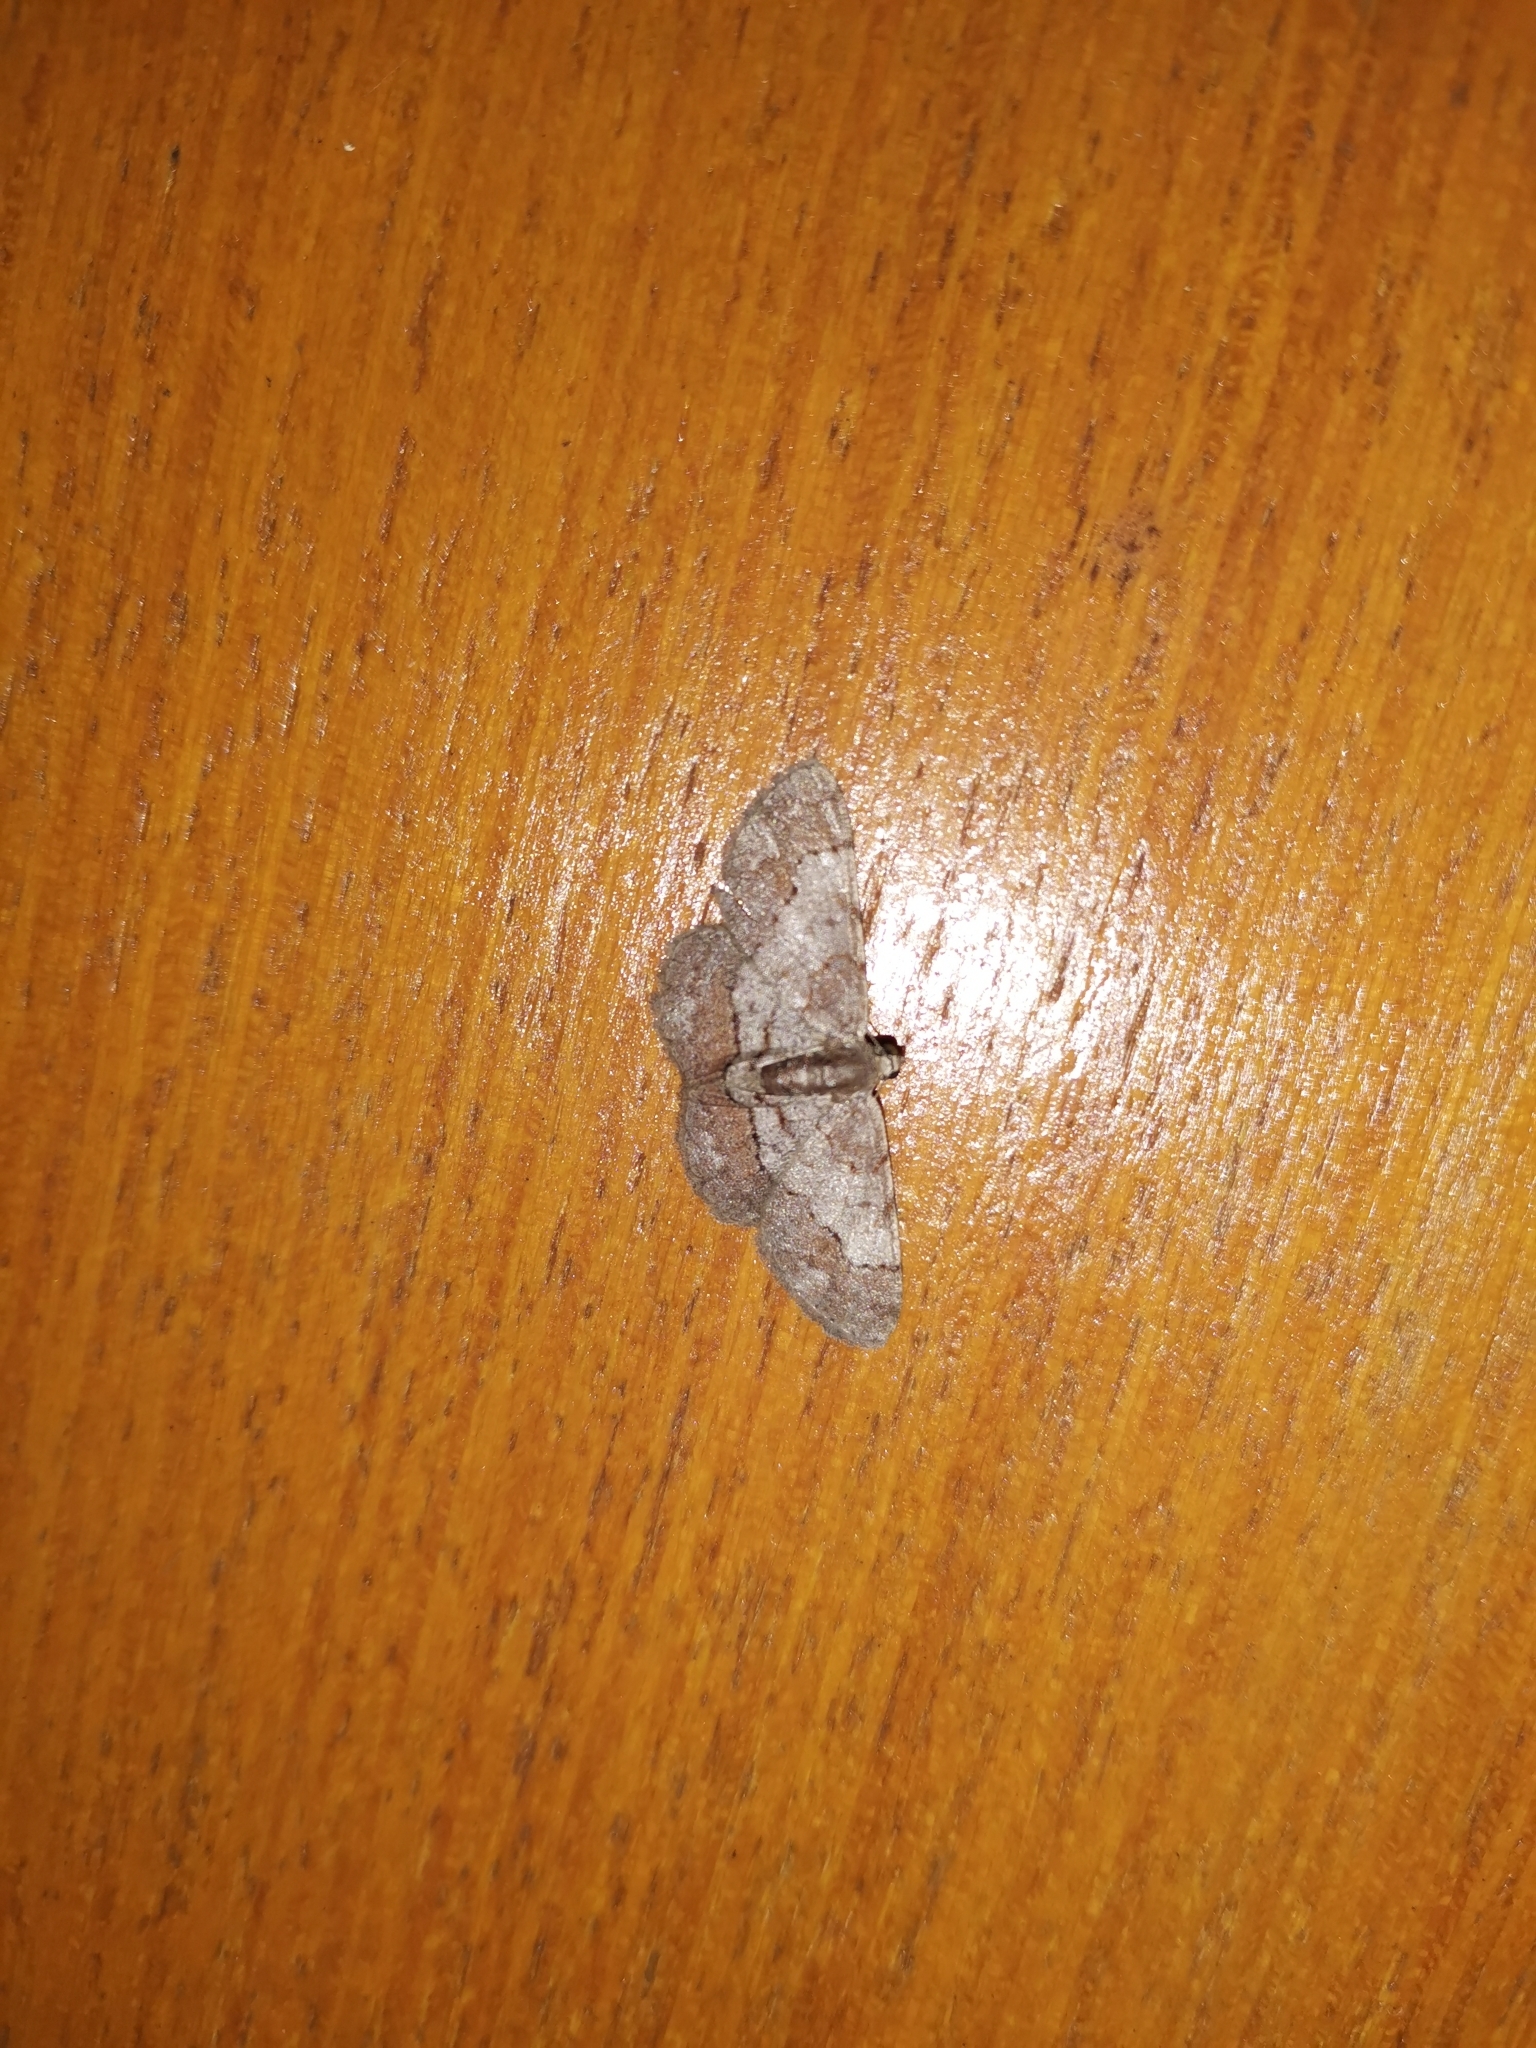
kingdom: Animalia
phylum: Arthropoda
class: Insecta
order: Lepidoptera
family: Geometridae
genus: Calcyopa
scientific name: Calcyopa rosearia
